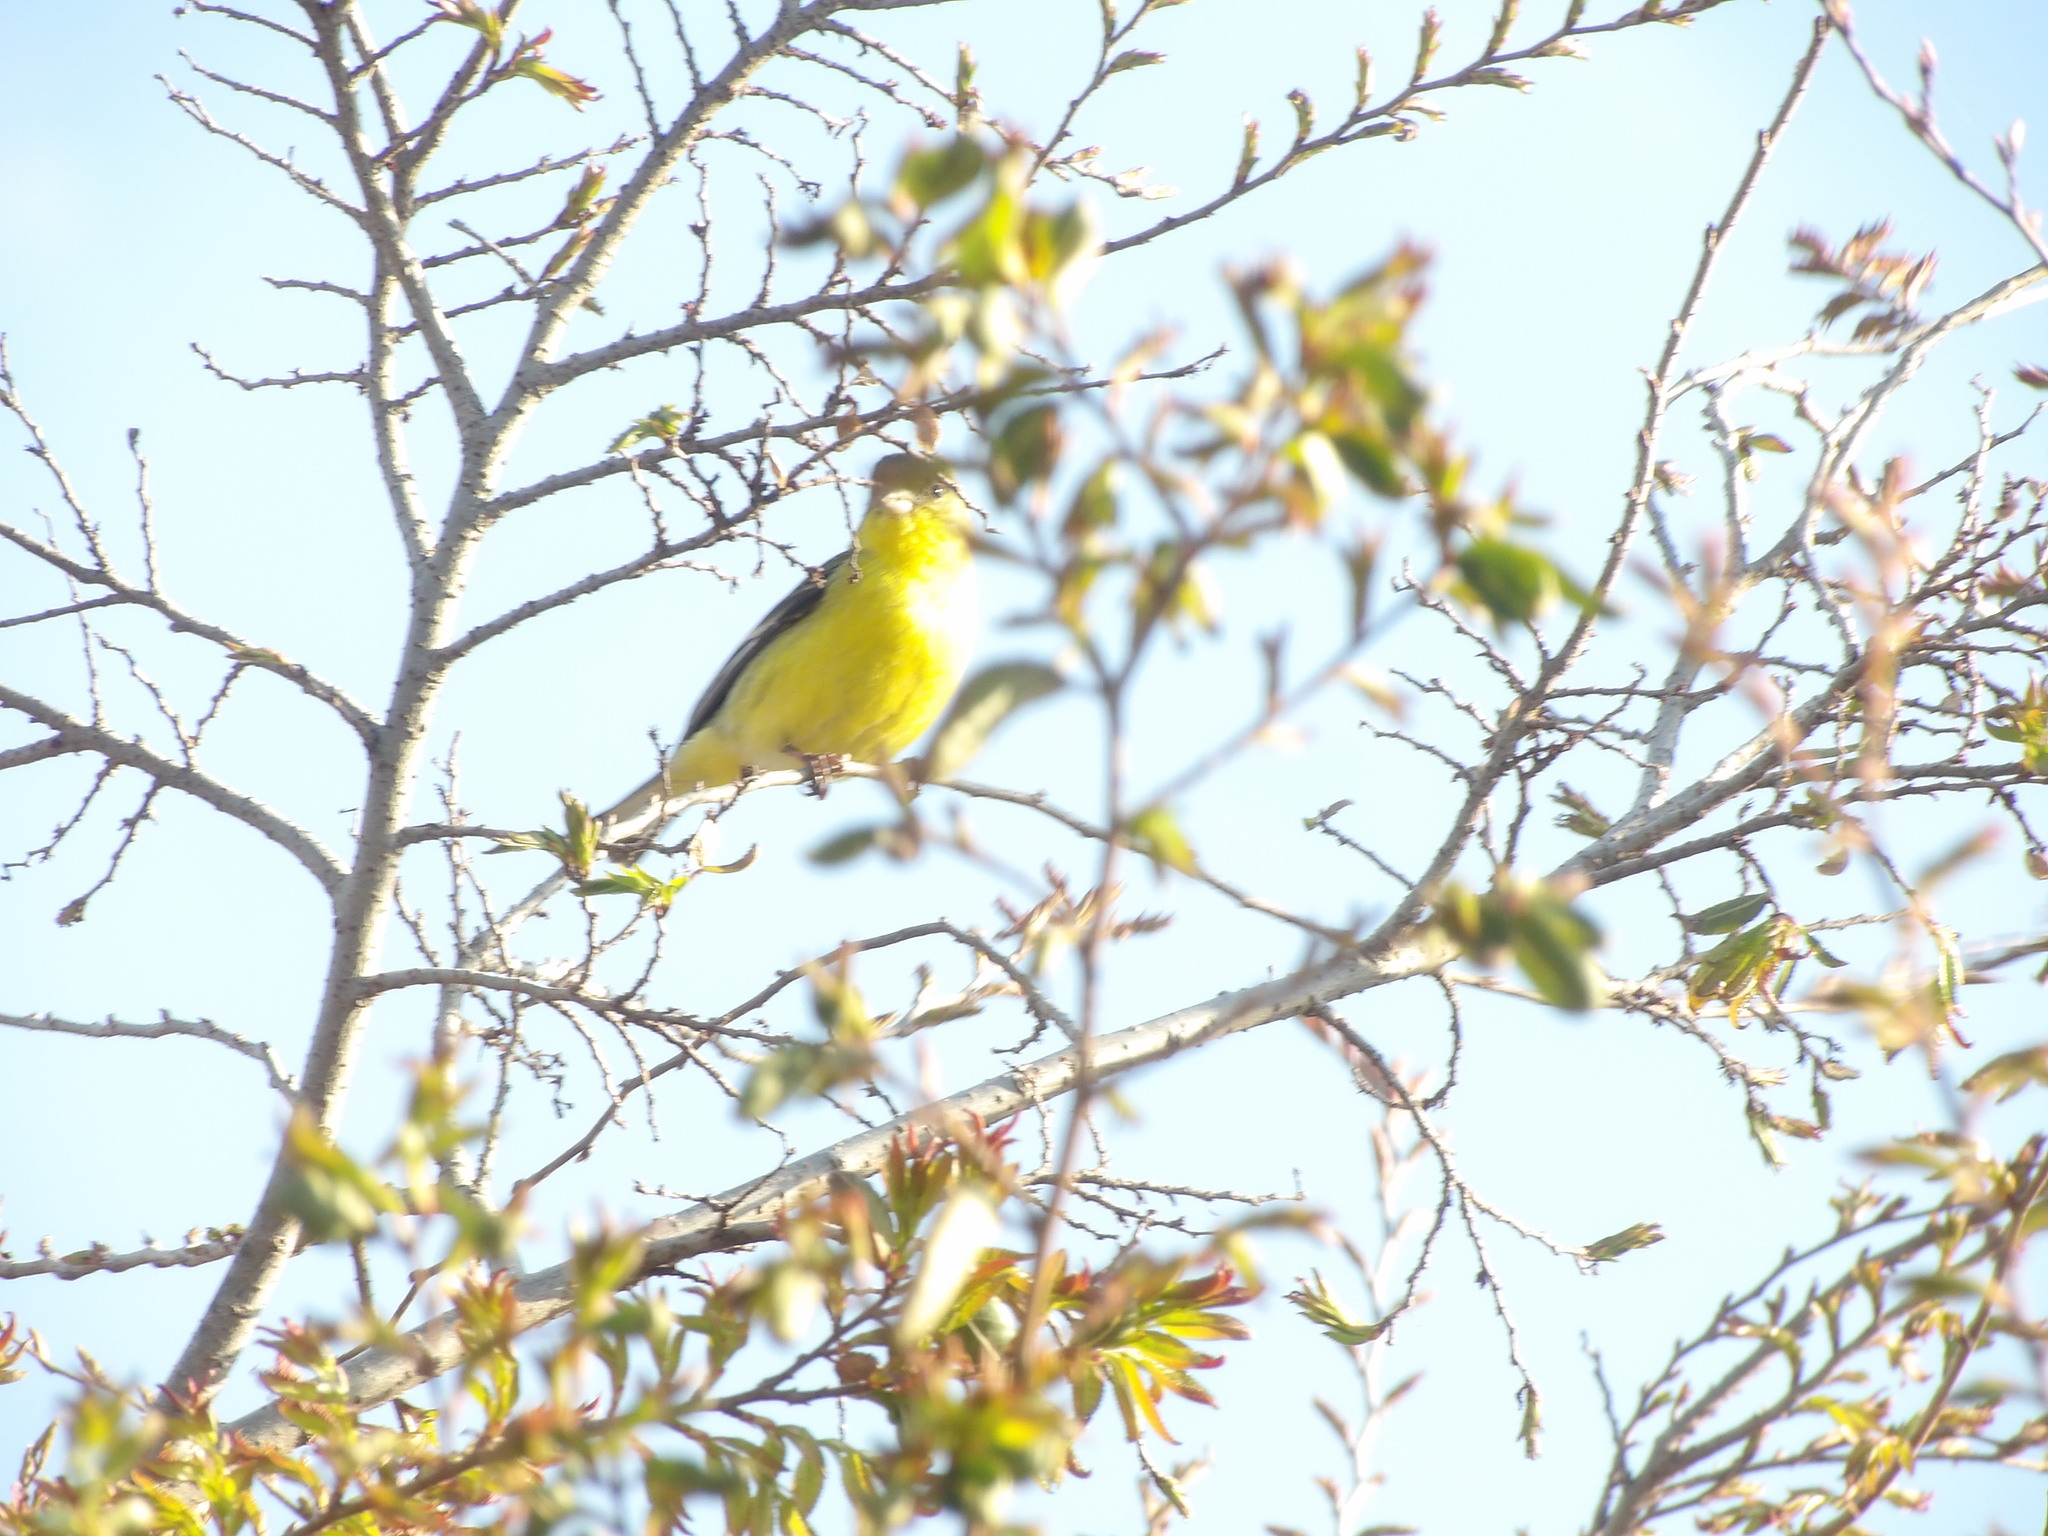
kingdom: Animalia
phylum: Chordata
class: Aves
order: Passeriformes
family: Fringillidae
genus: Spinus
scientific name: Spinus psaltria
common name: Lesser goldfinch
